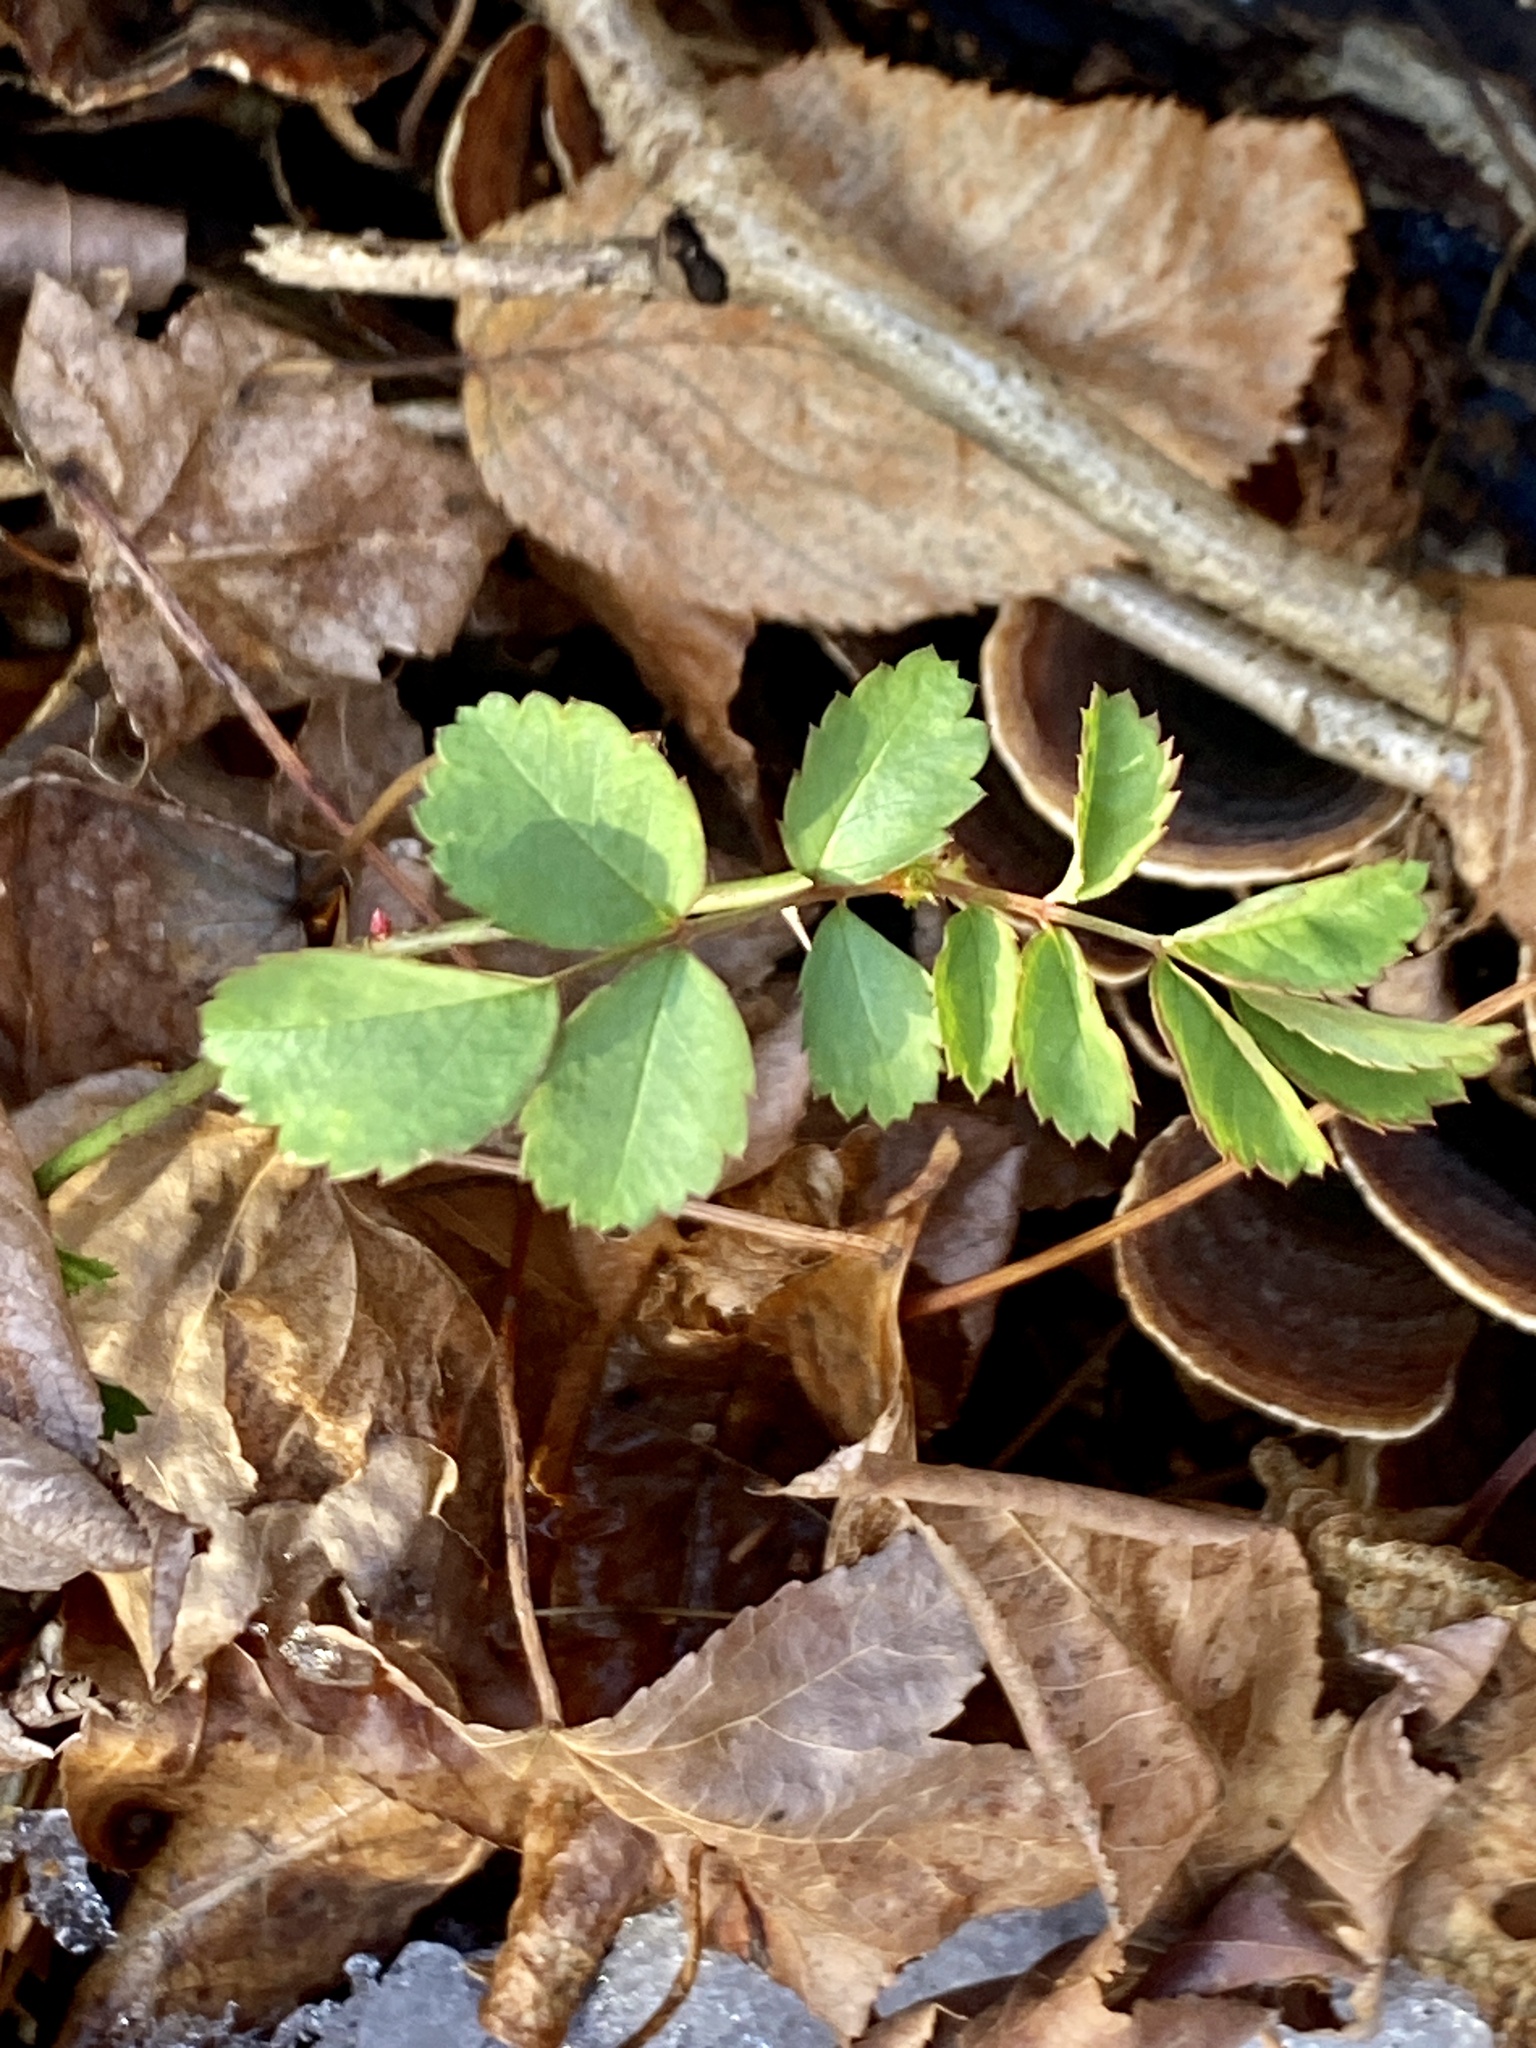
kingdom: Plantae
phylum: Tracheophyta
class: Magnoliopsida
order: Rosales
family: Rosaceae
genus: Rosa
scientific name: Rosa multiflora
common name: Multiflora rose
